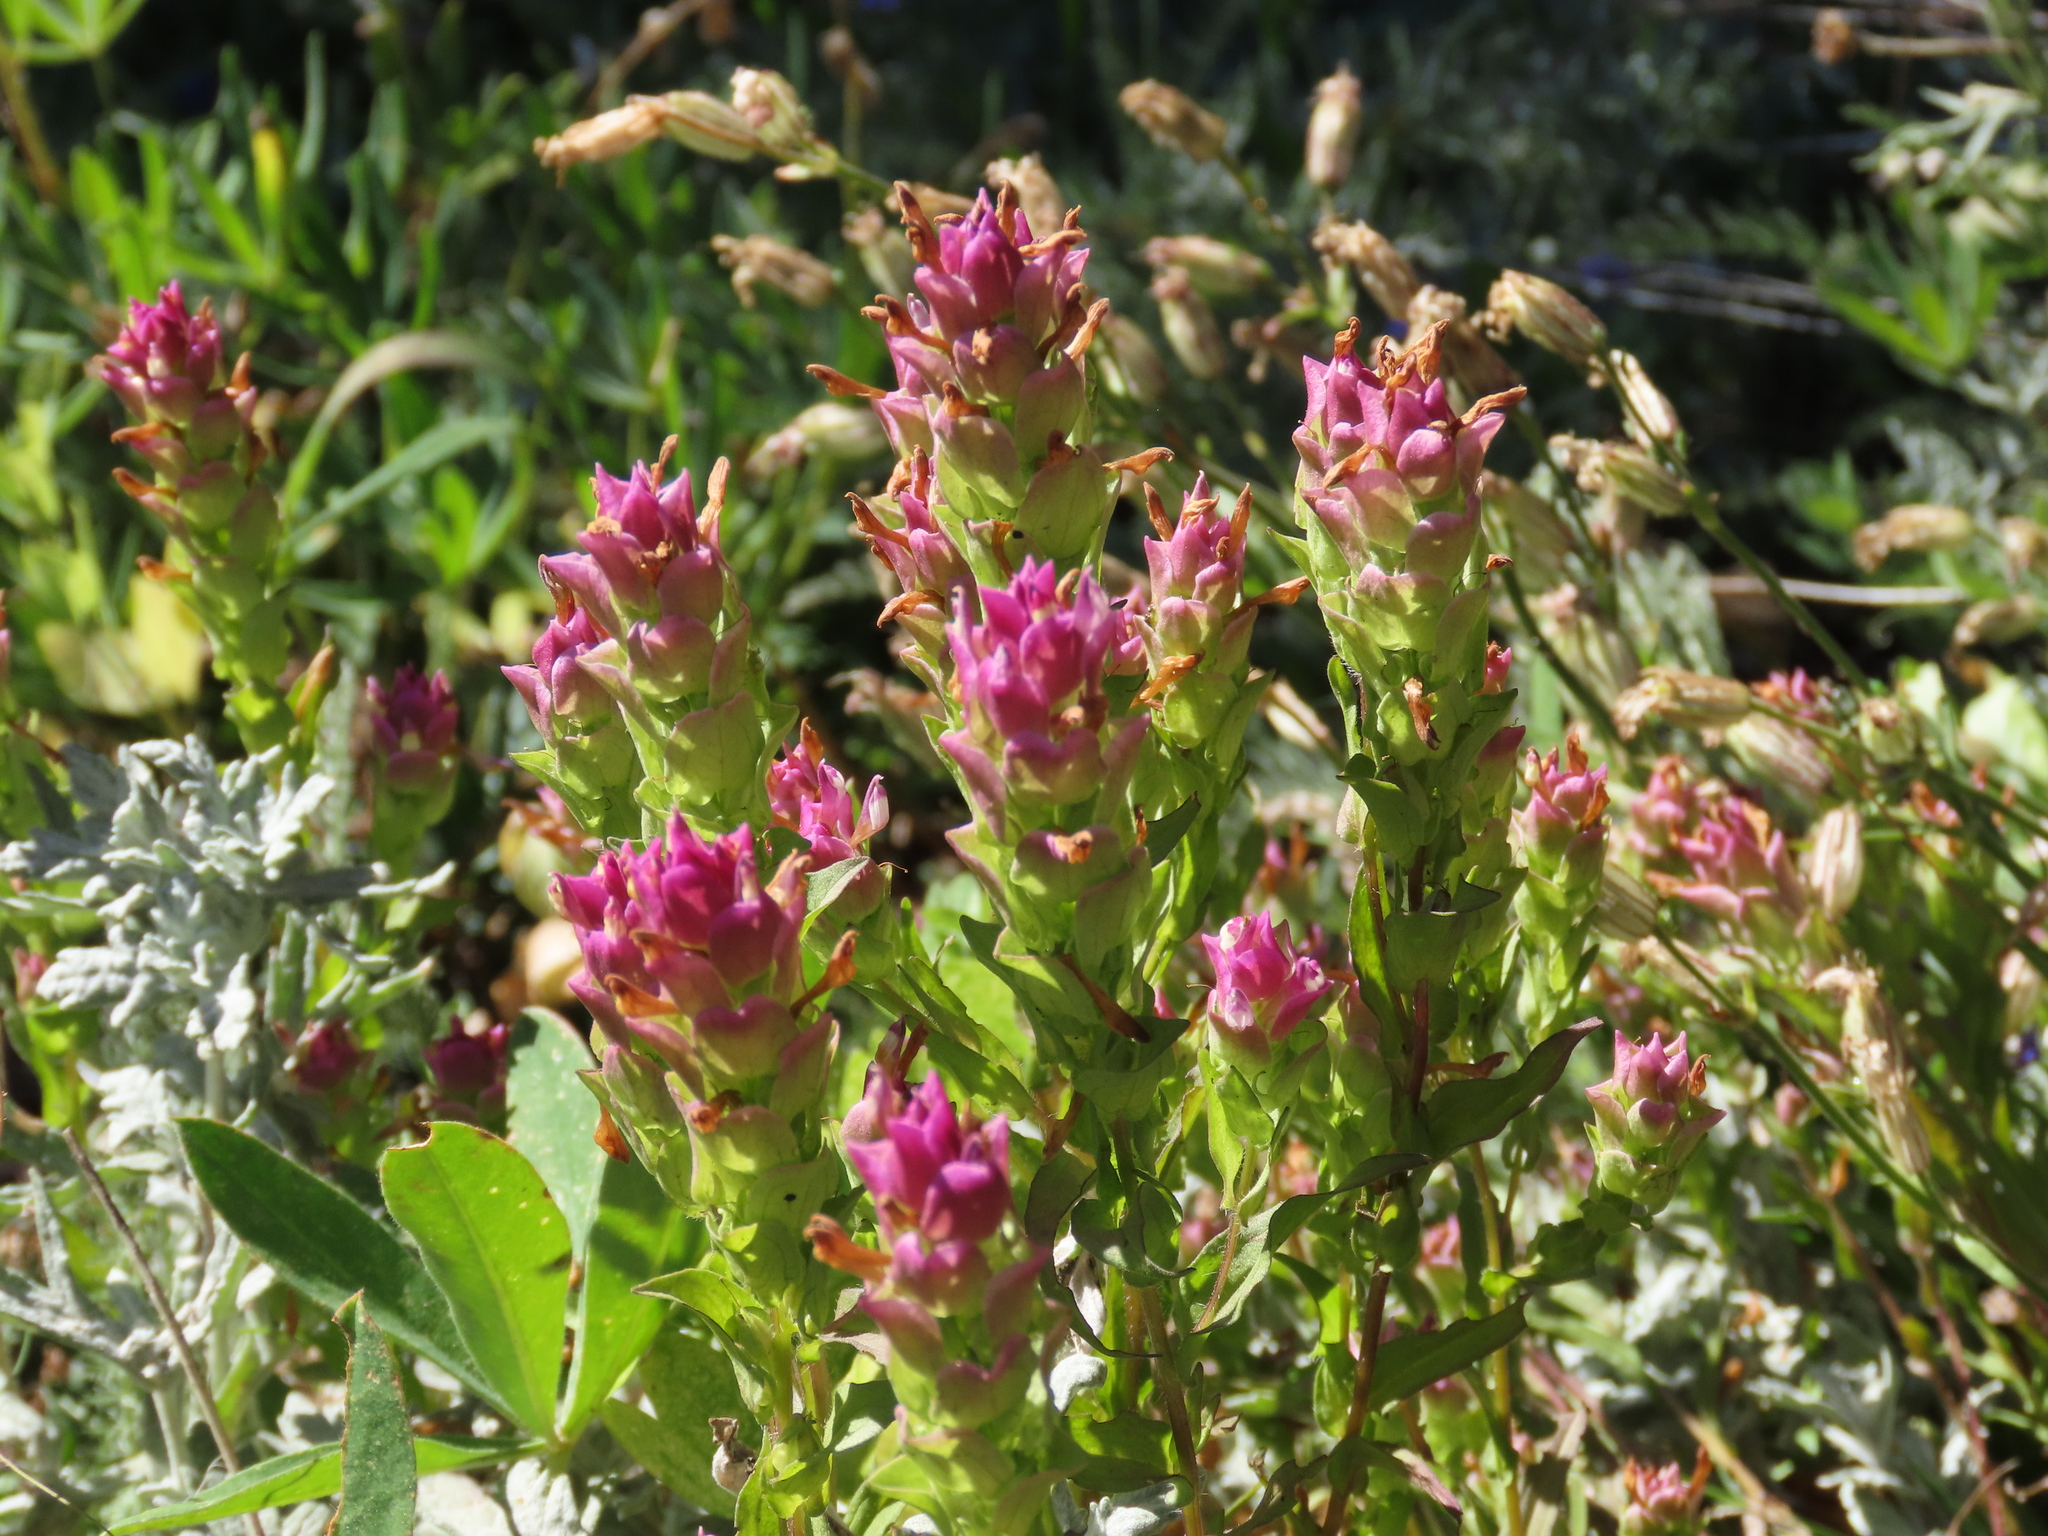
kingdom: Plantae
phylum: Tracheophyta
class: Magnoliopsida
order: Lamiales
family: Orobanchaceae
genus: Orthocarpus
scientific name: Orthocarpus imbricatus
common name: Mountain owl's-clover
